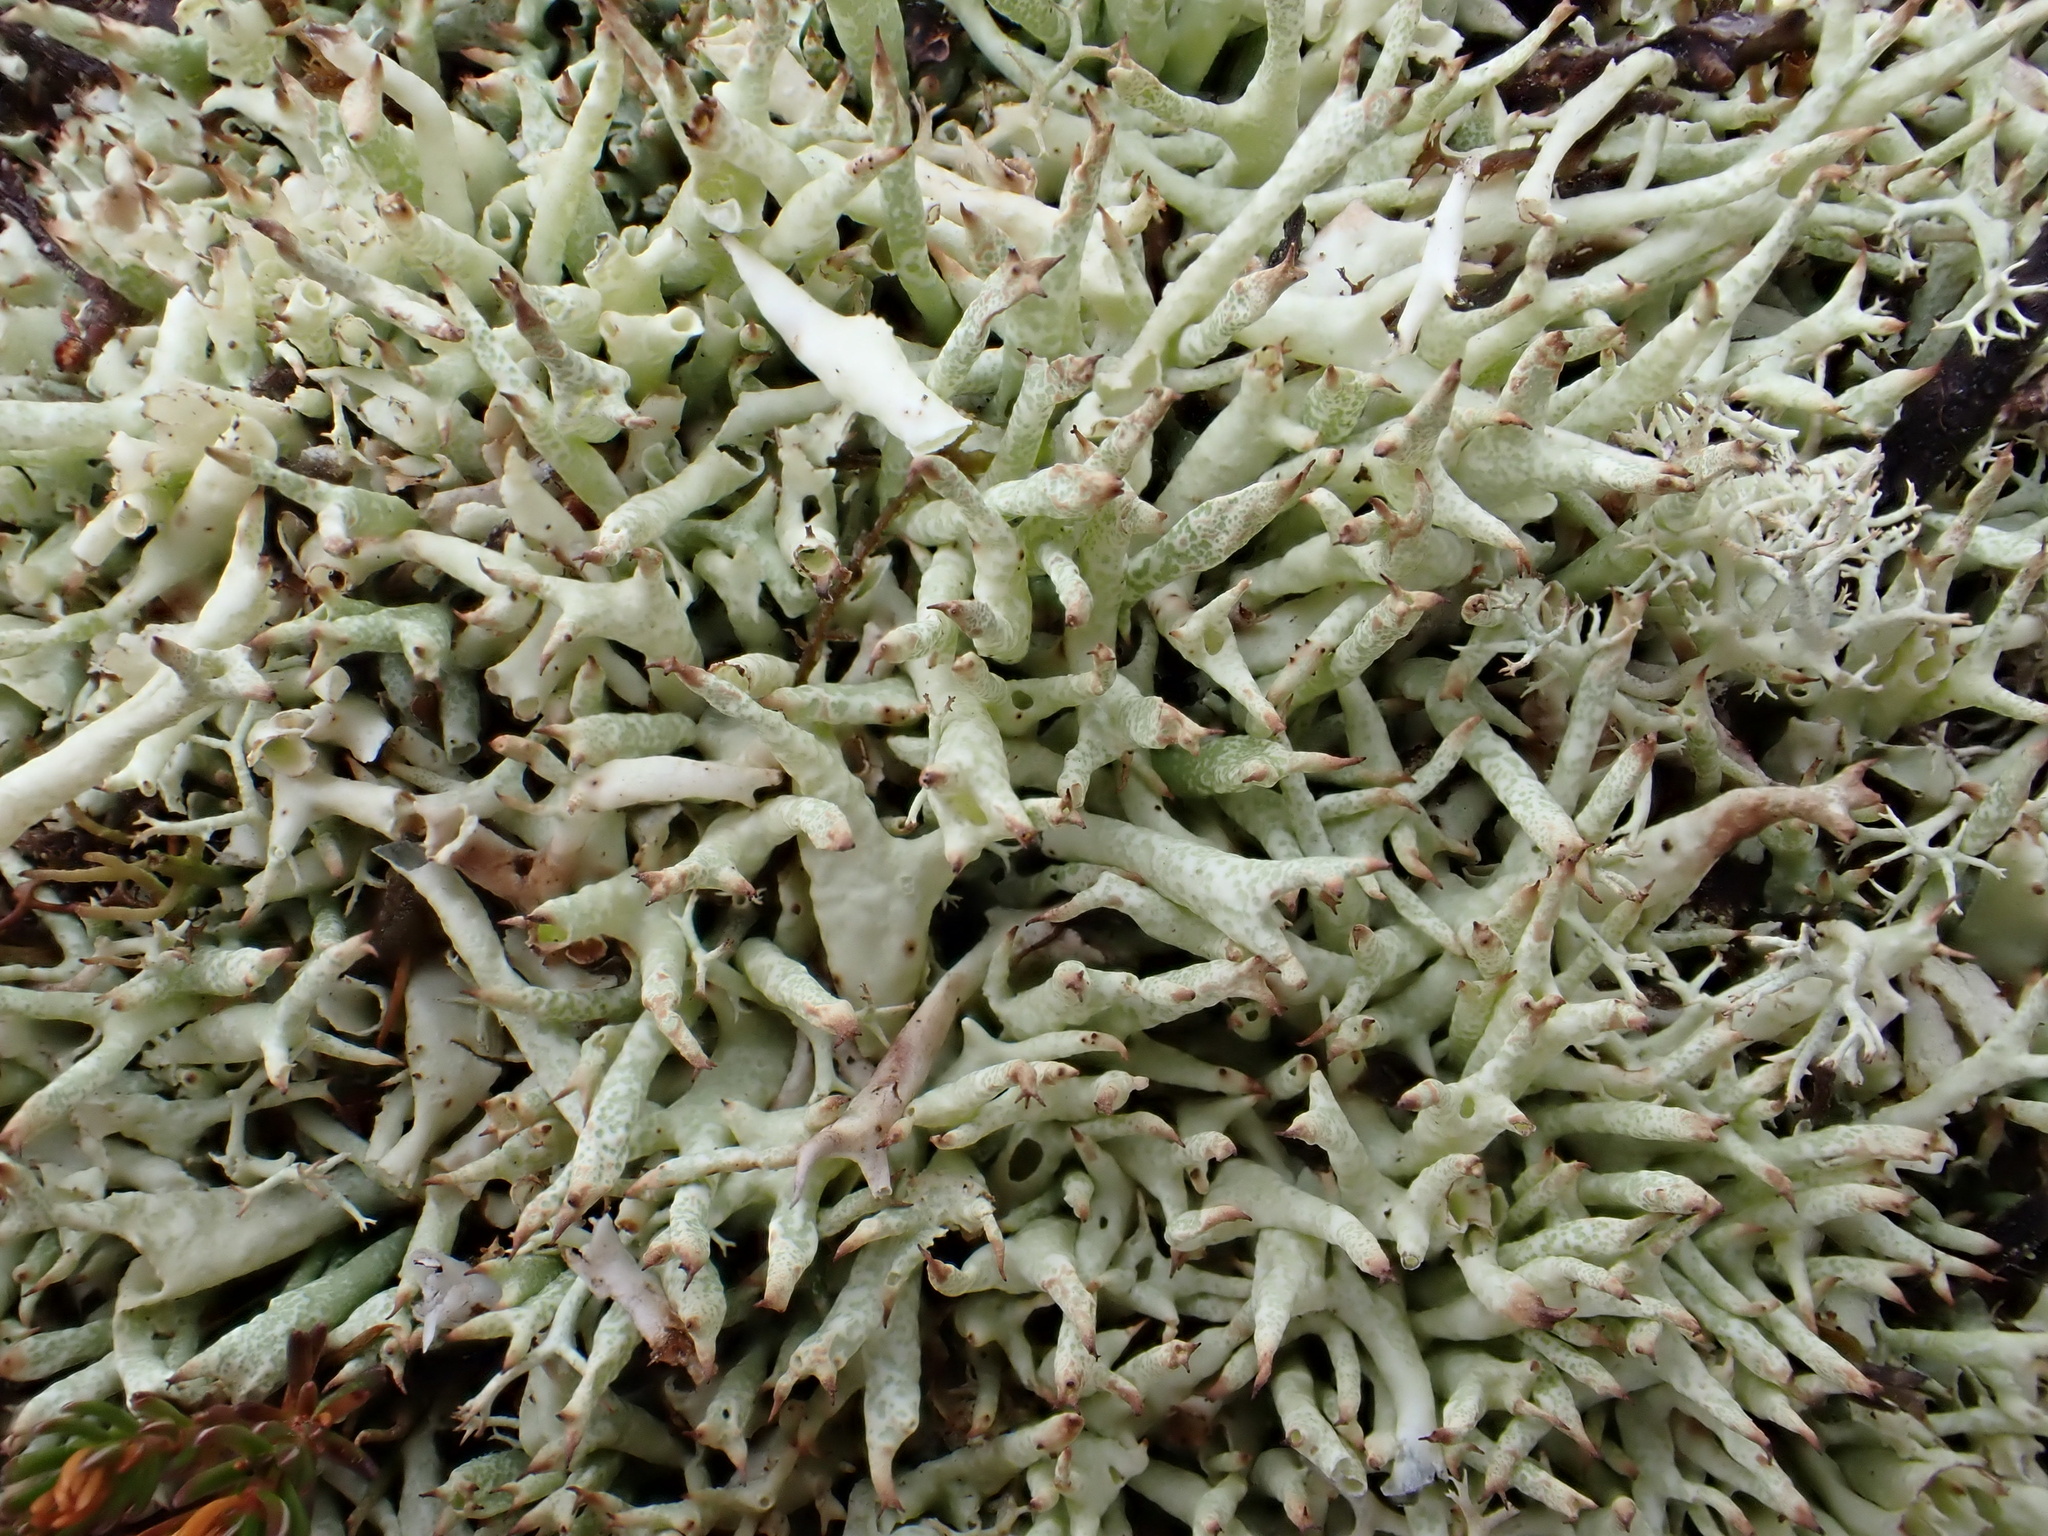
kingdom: Fungi
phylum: Ascomycota
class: Lecanoromycetes
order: Lecanorales
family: Cladoniaceae
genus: Cladonia
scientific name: Cladonia uncialis
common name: Thorn lichen
